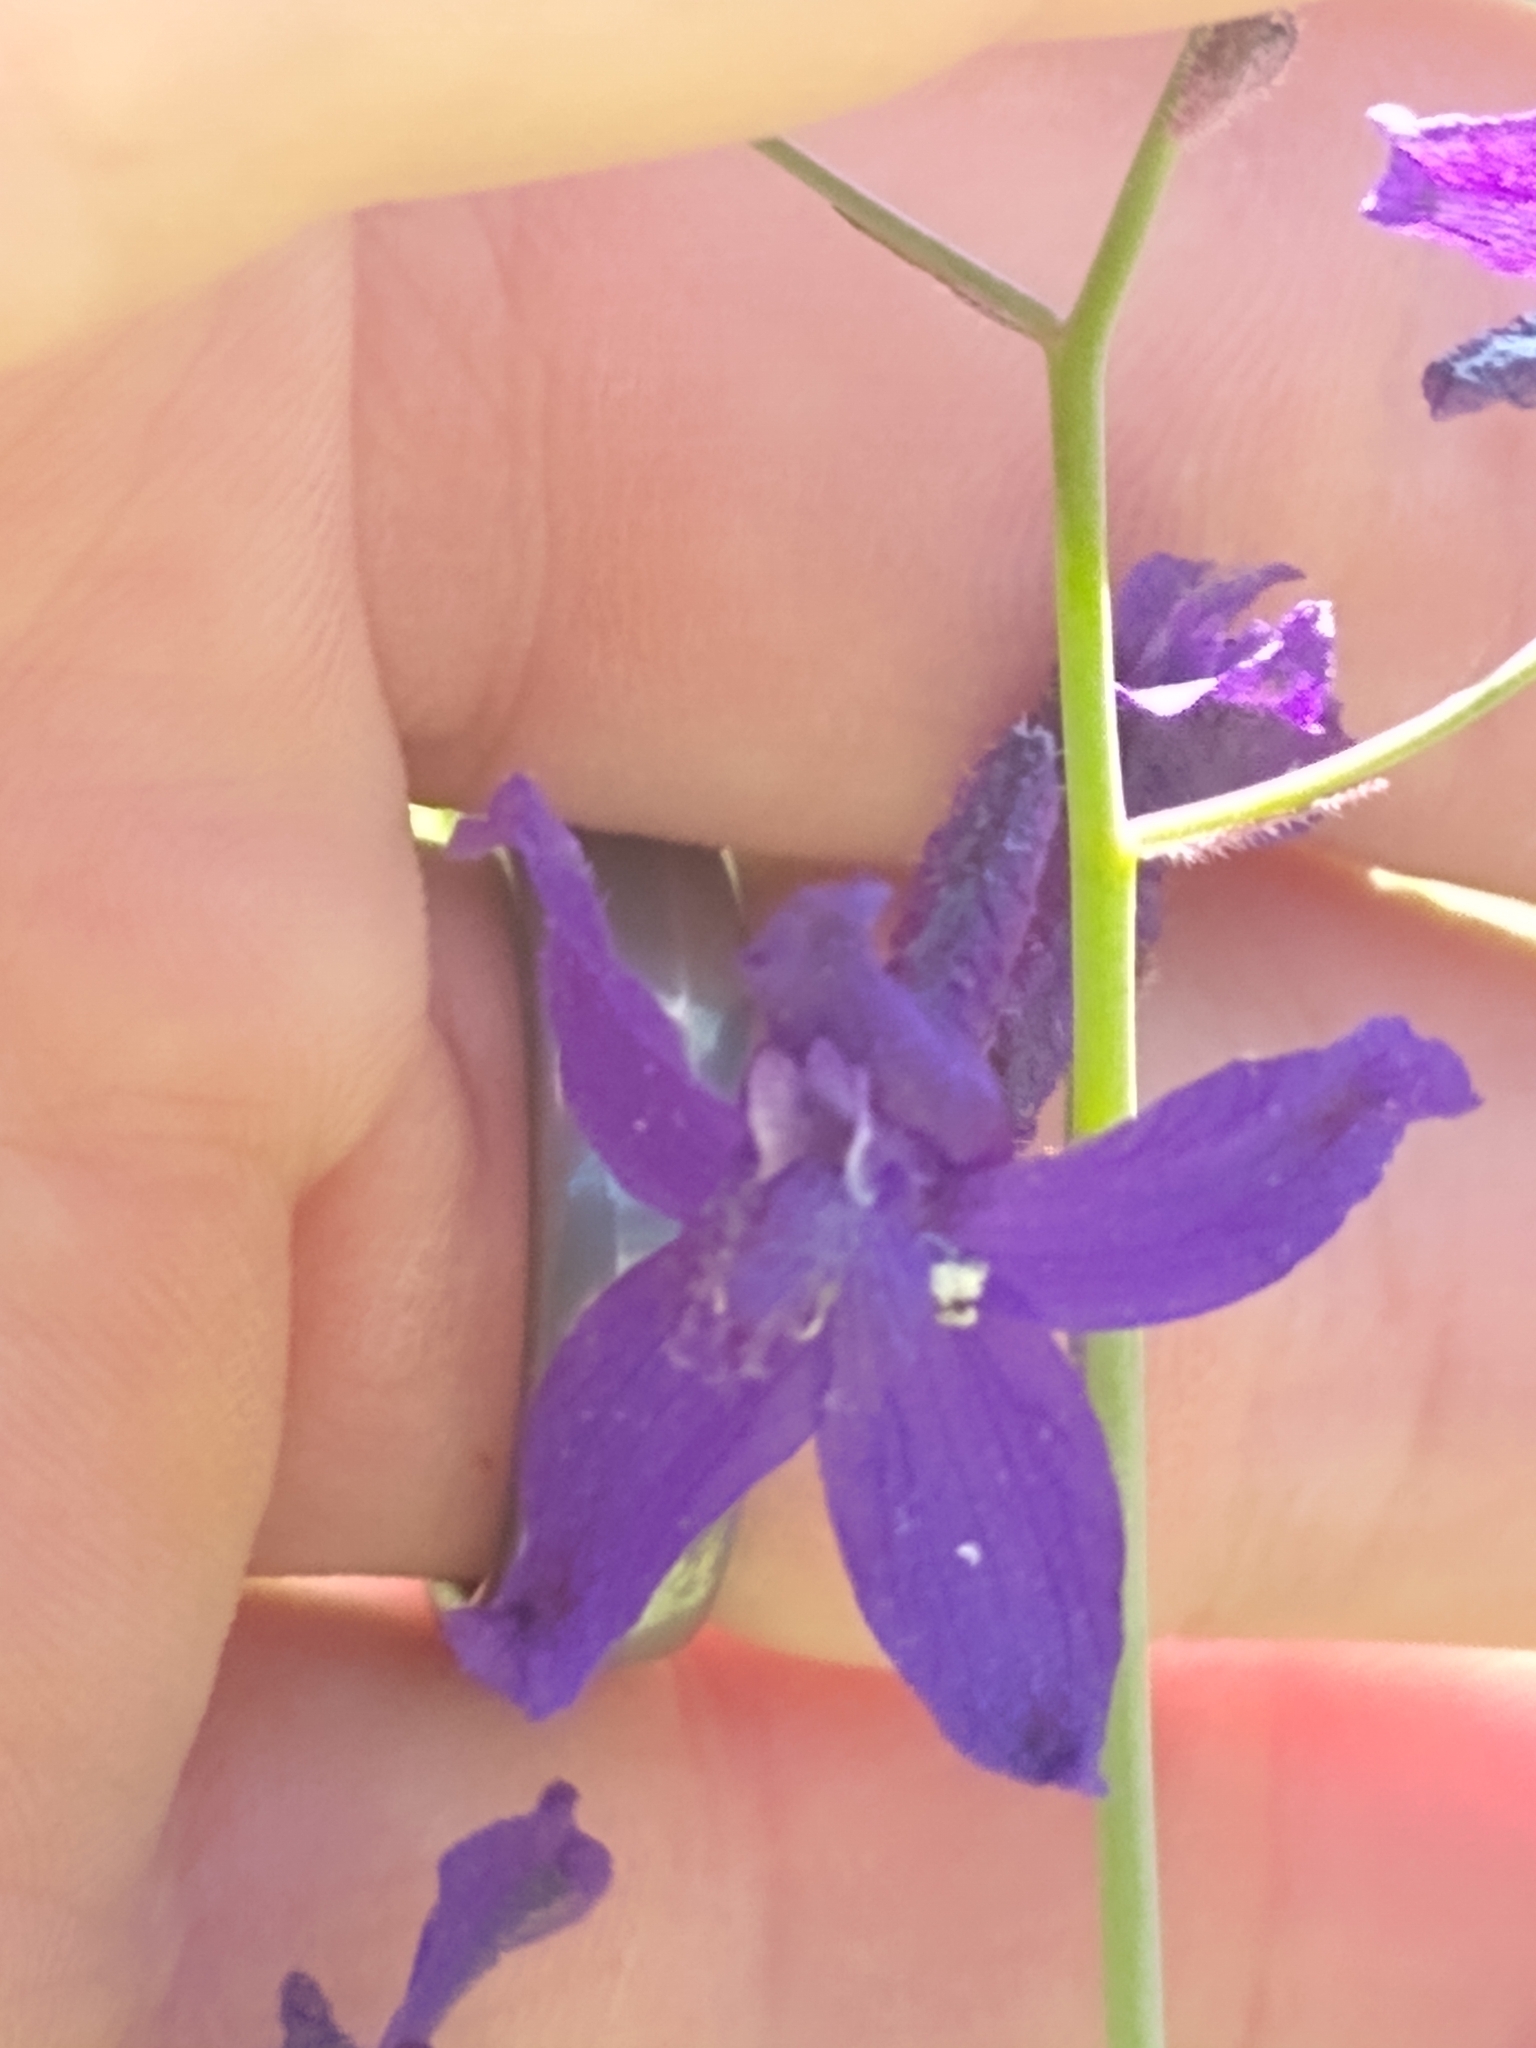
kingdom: Plantae
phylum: Tracheophyta
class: Magnoliopsida
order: Ranunculales
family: Ranunculaceae
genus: Delphinium
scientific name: Delphinium patens
